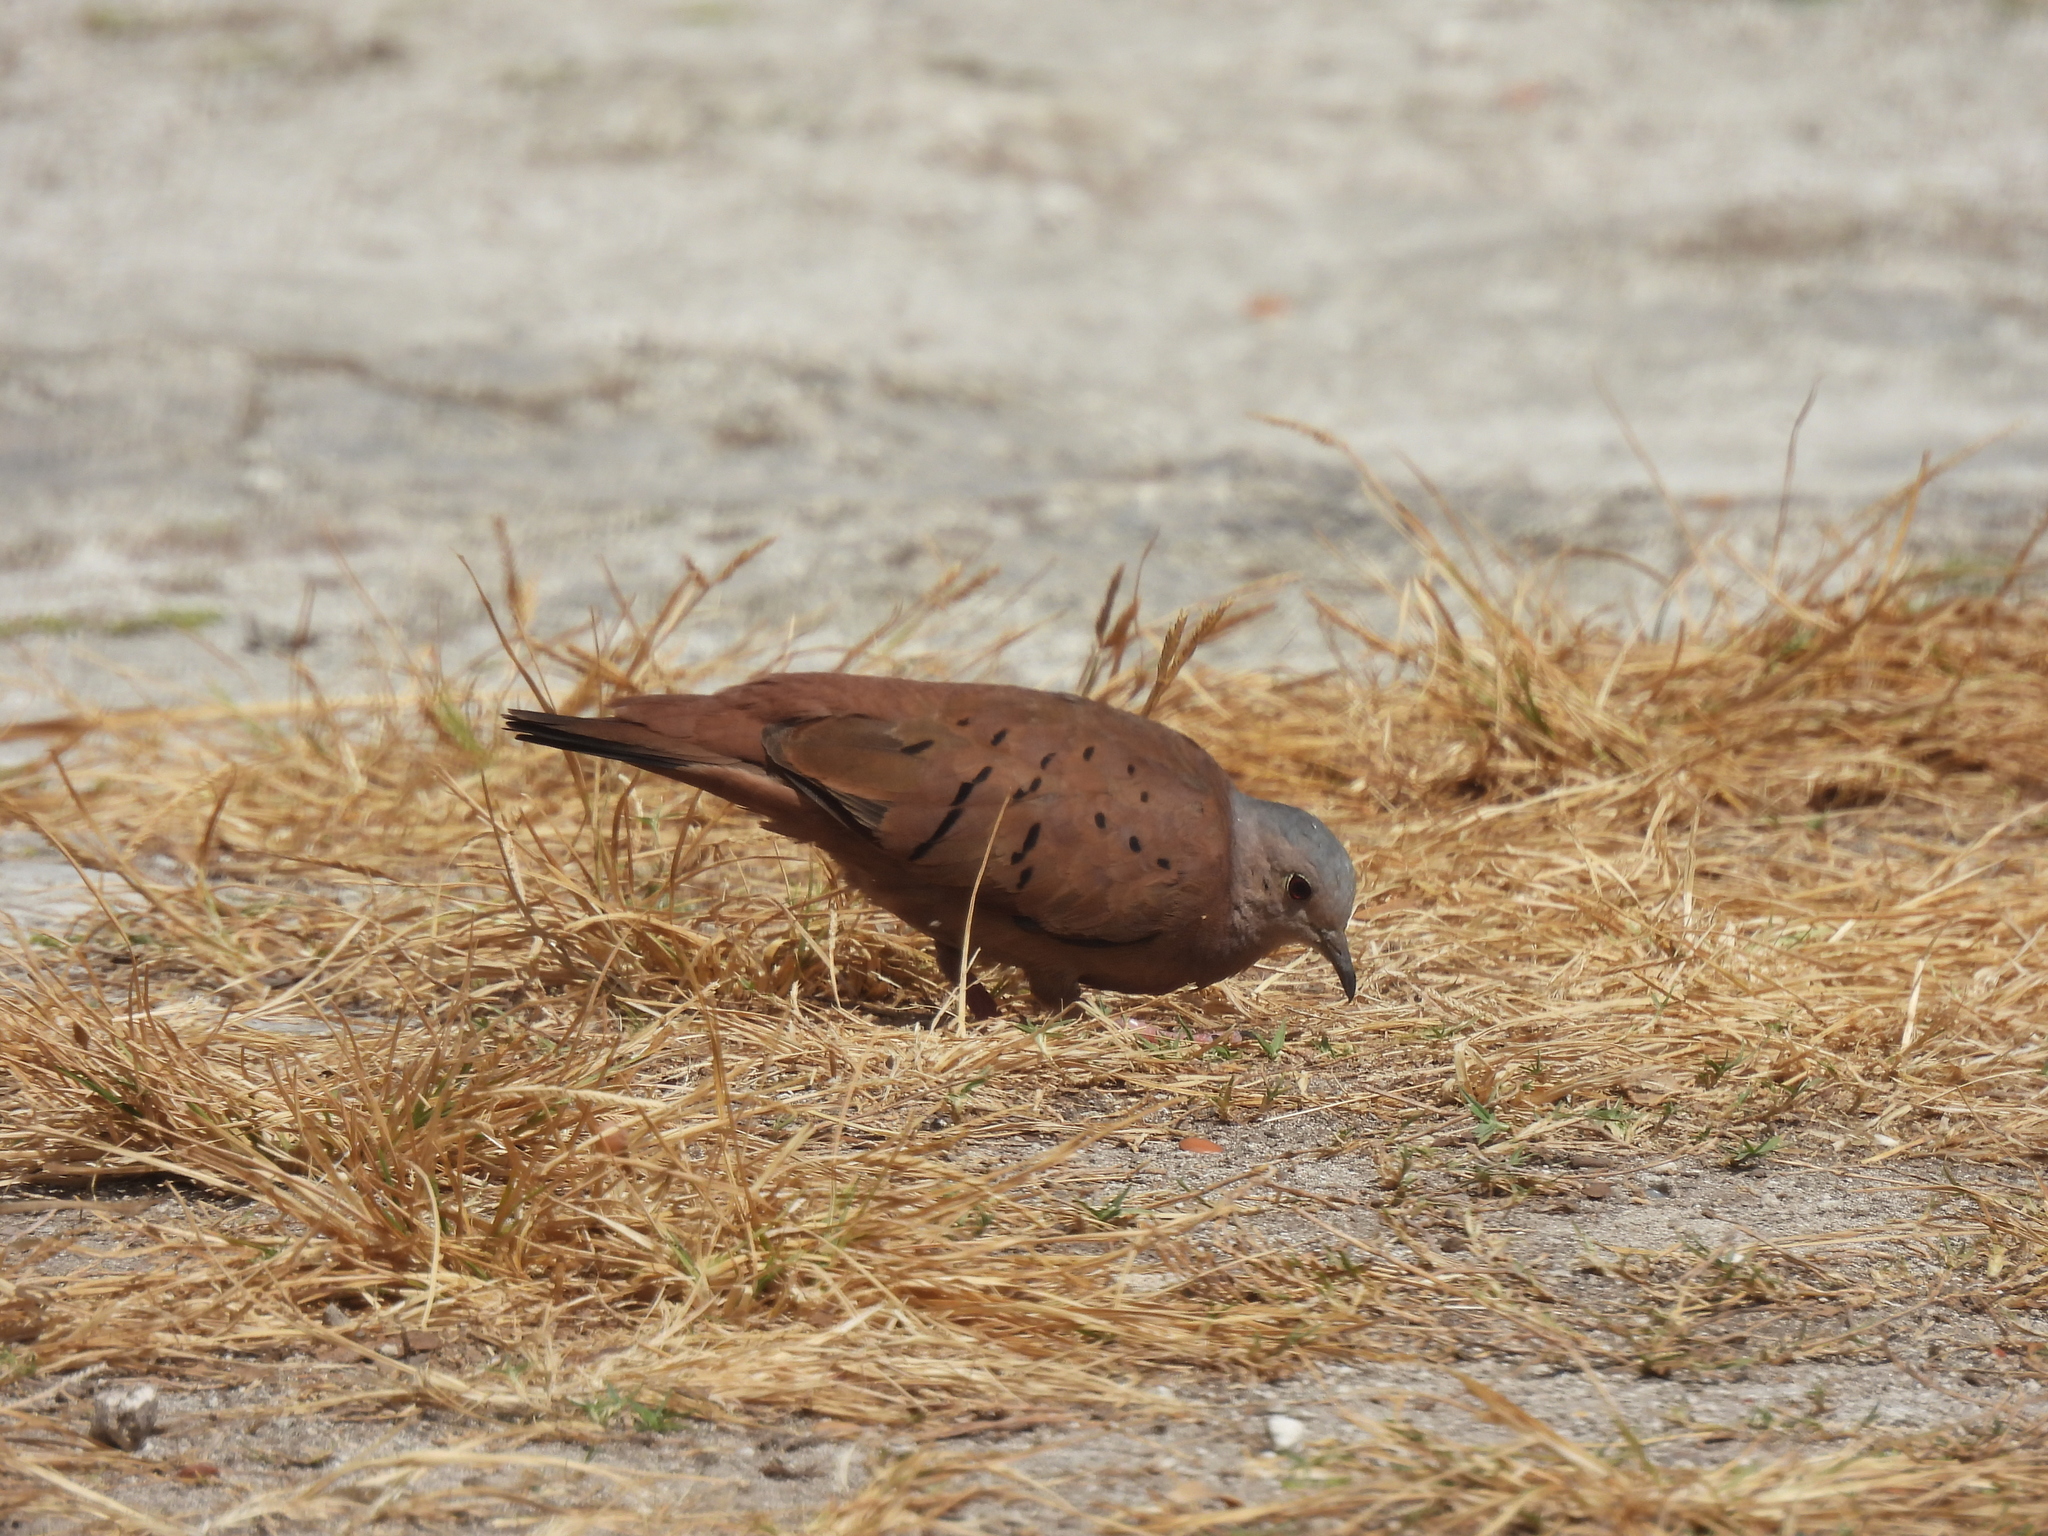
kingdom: Animalia
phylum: Chordata
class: Aves
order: Columbiformes
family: Columbidae
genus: Columbina
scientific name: Columbina talpacoti
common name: Ruddy ground dove
